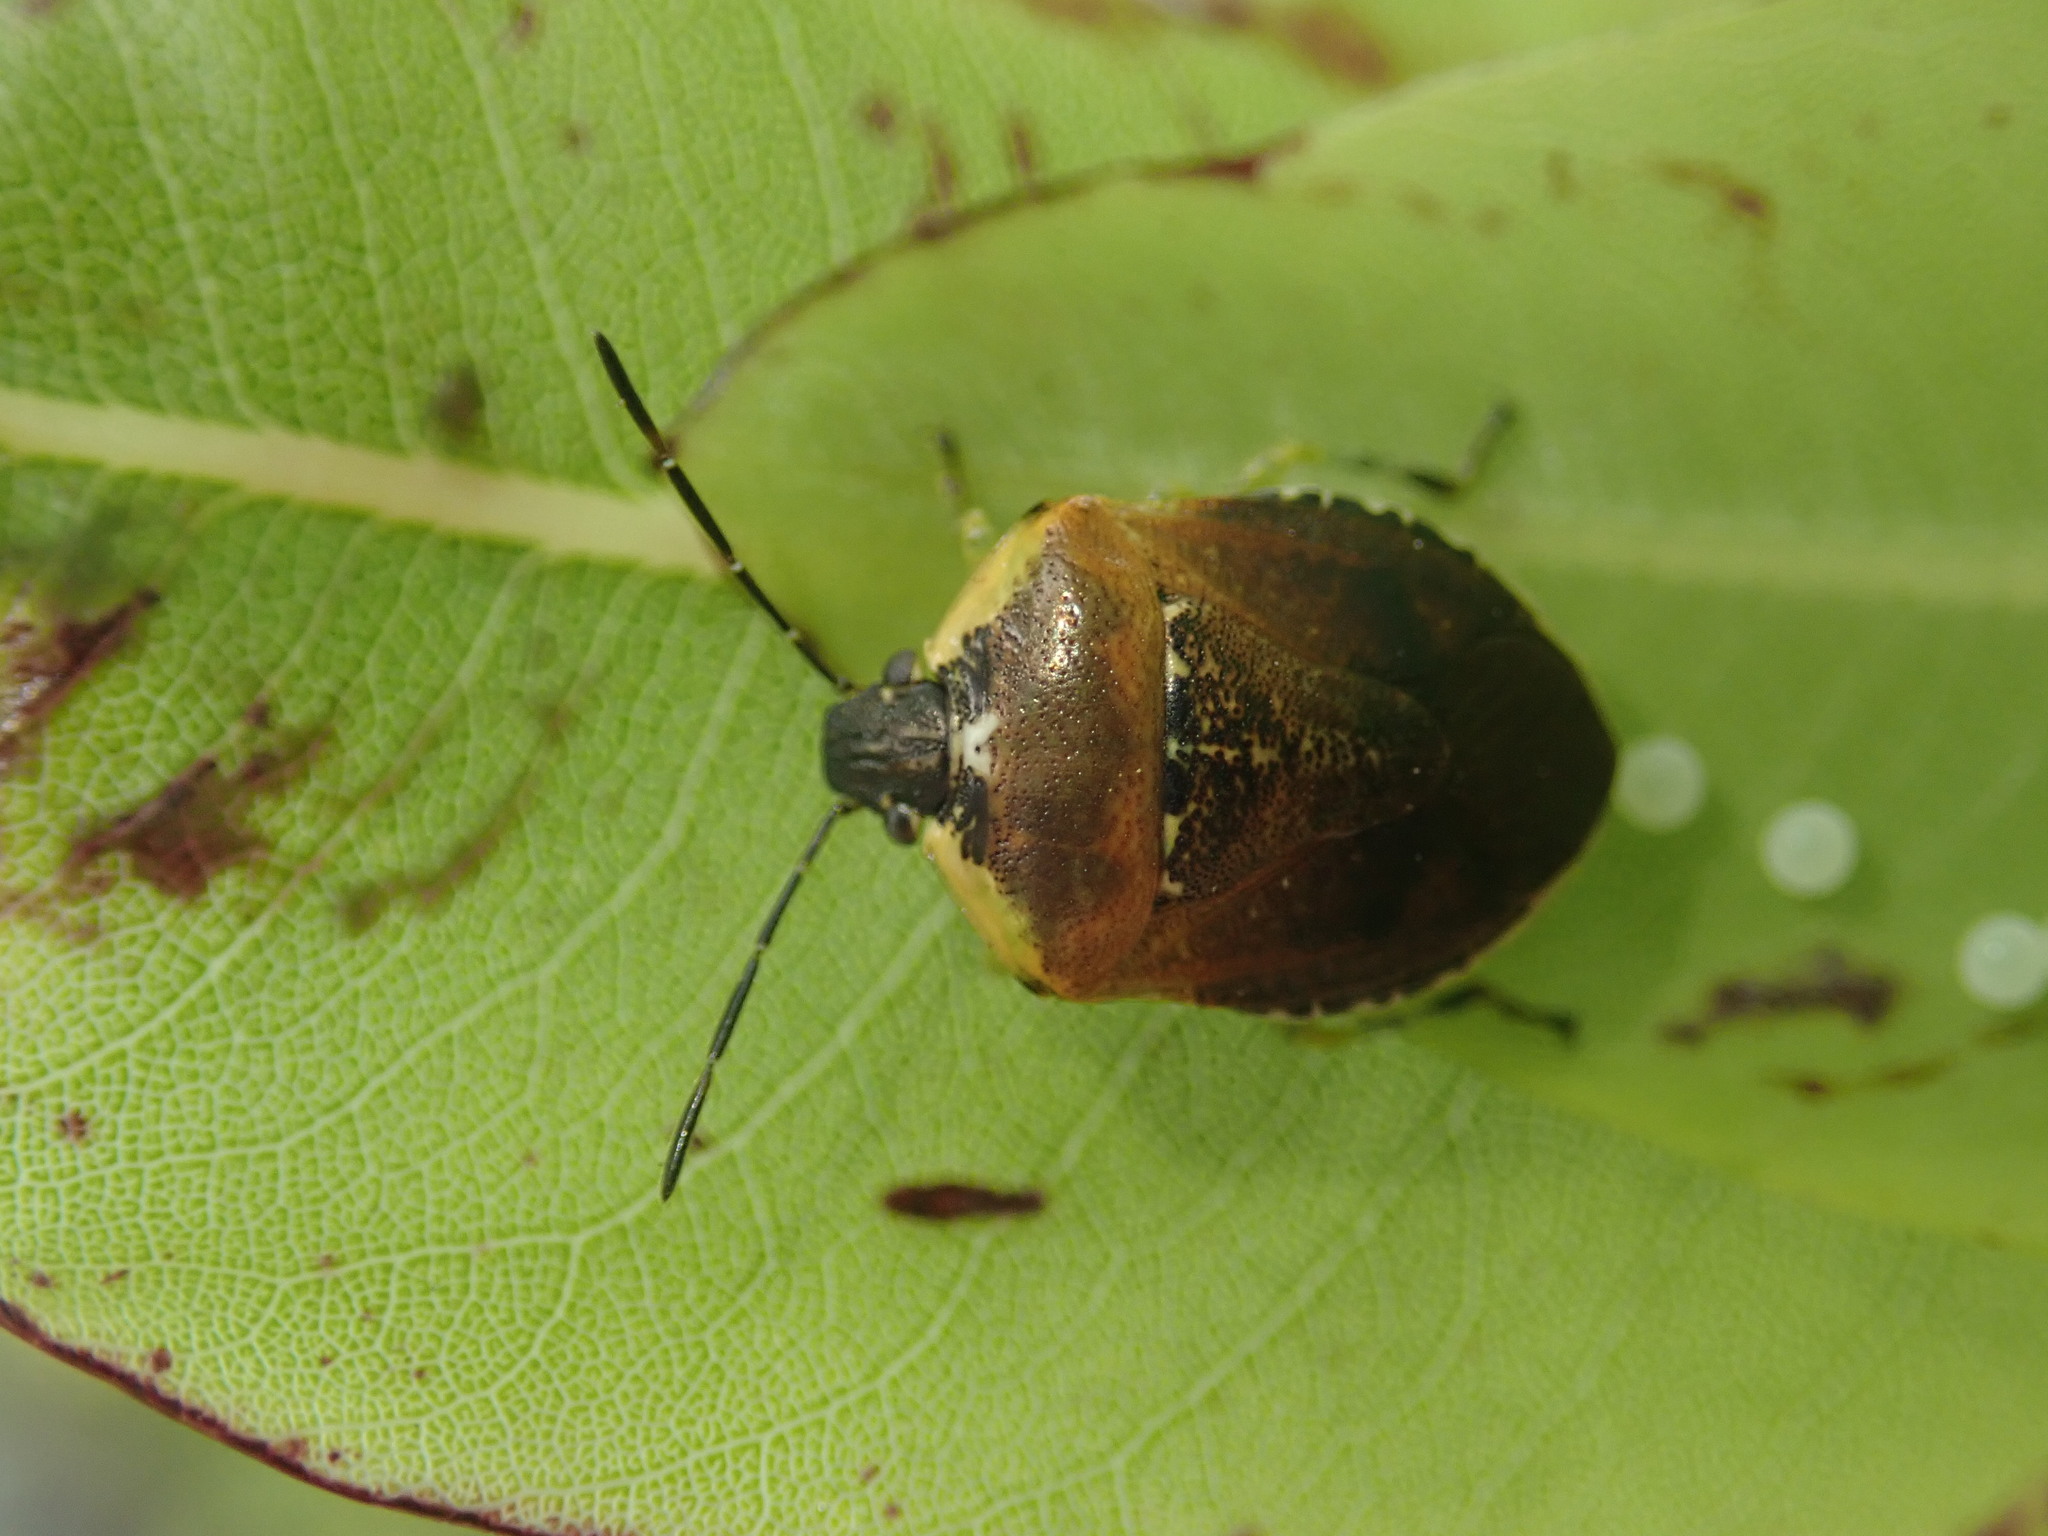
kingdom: Animalia
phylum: Arthropoda
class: Insecta
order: Hemiptera
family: Pentatomidae
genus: Monteithiella
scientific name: Monteithiella
